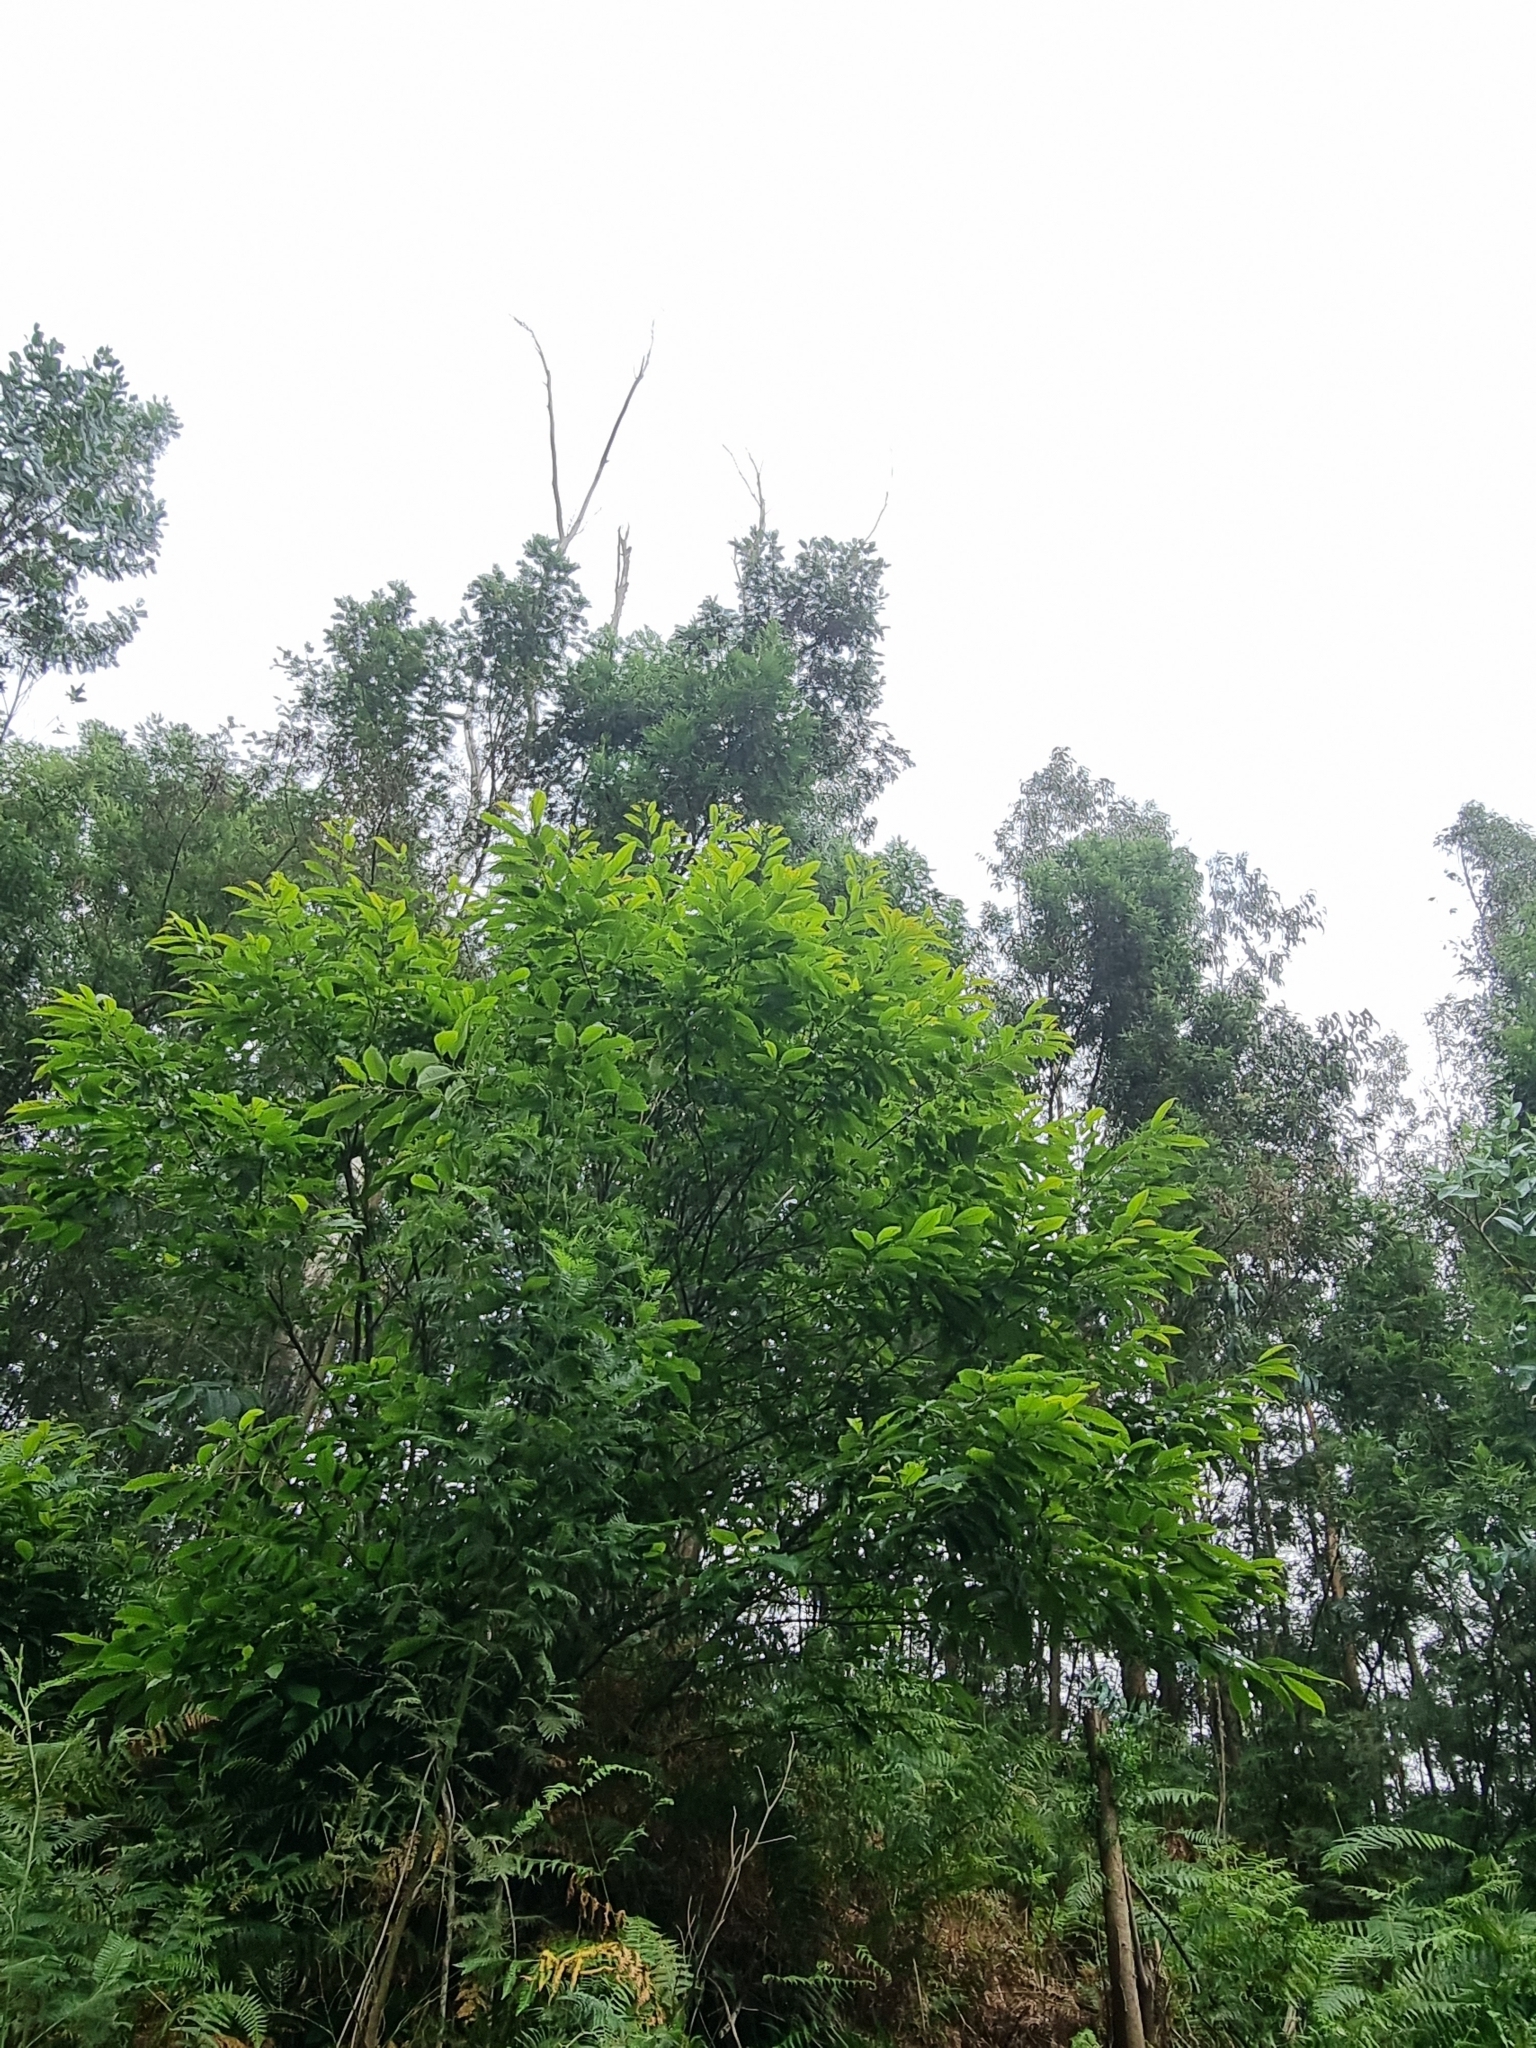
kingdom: Plantae
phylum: Tracheophyta
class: Magnoliopsida
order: Fagales
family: Fagaceae
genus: Castanea
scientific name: Castanea sativa
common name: Sweet chestnut
